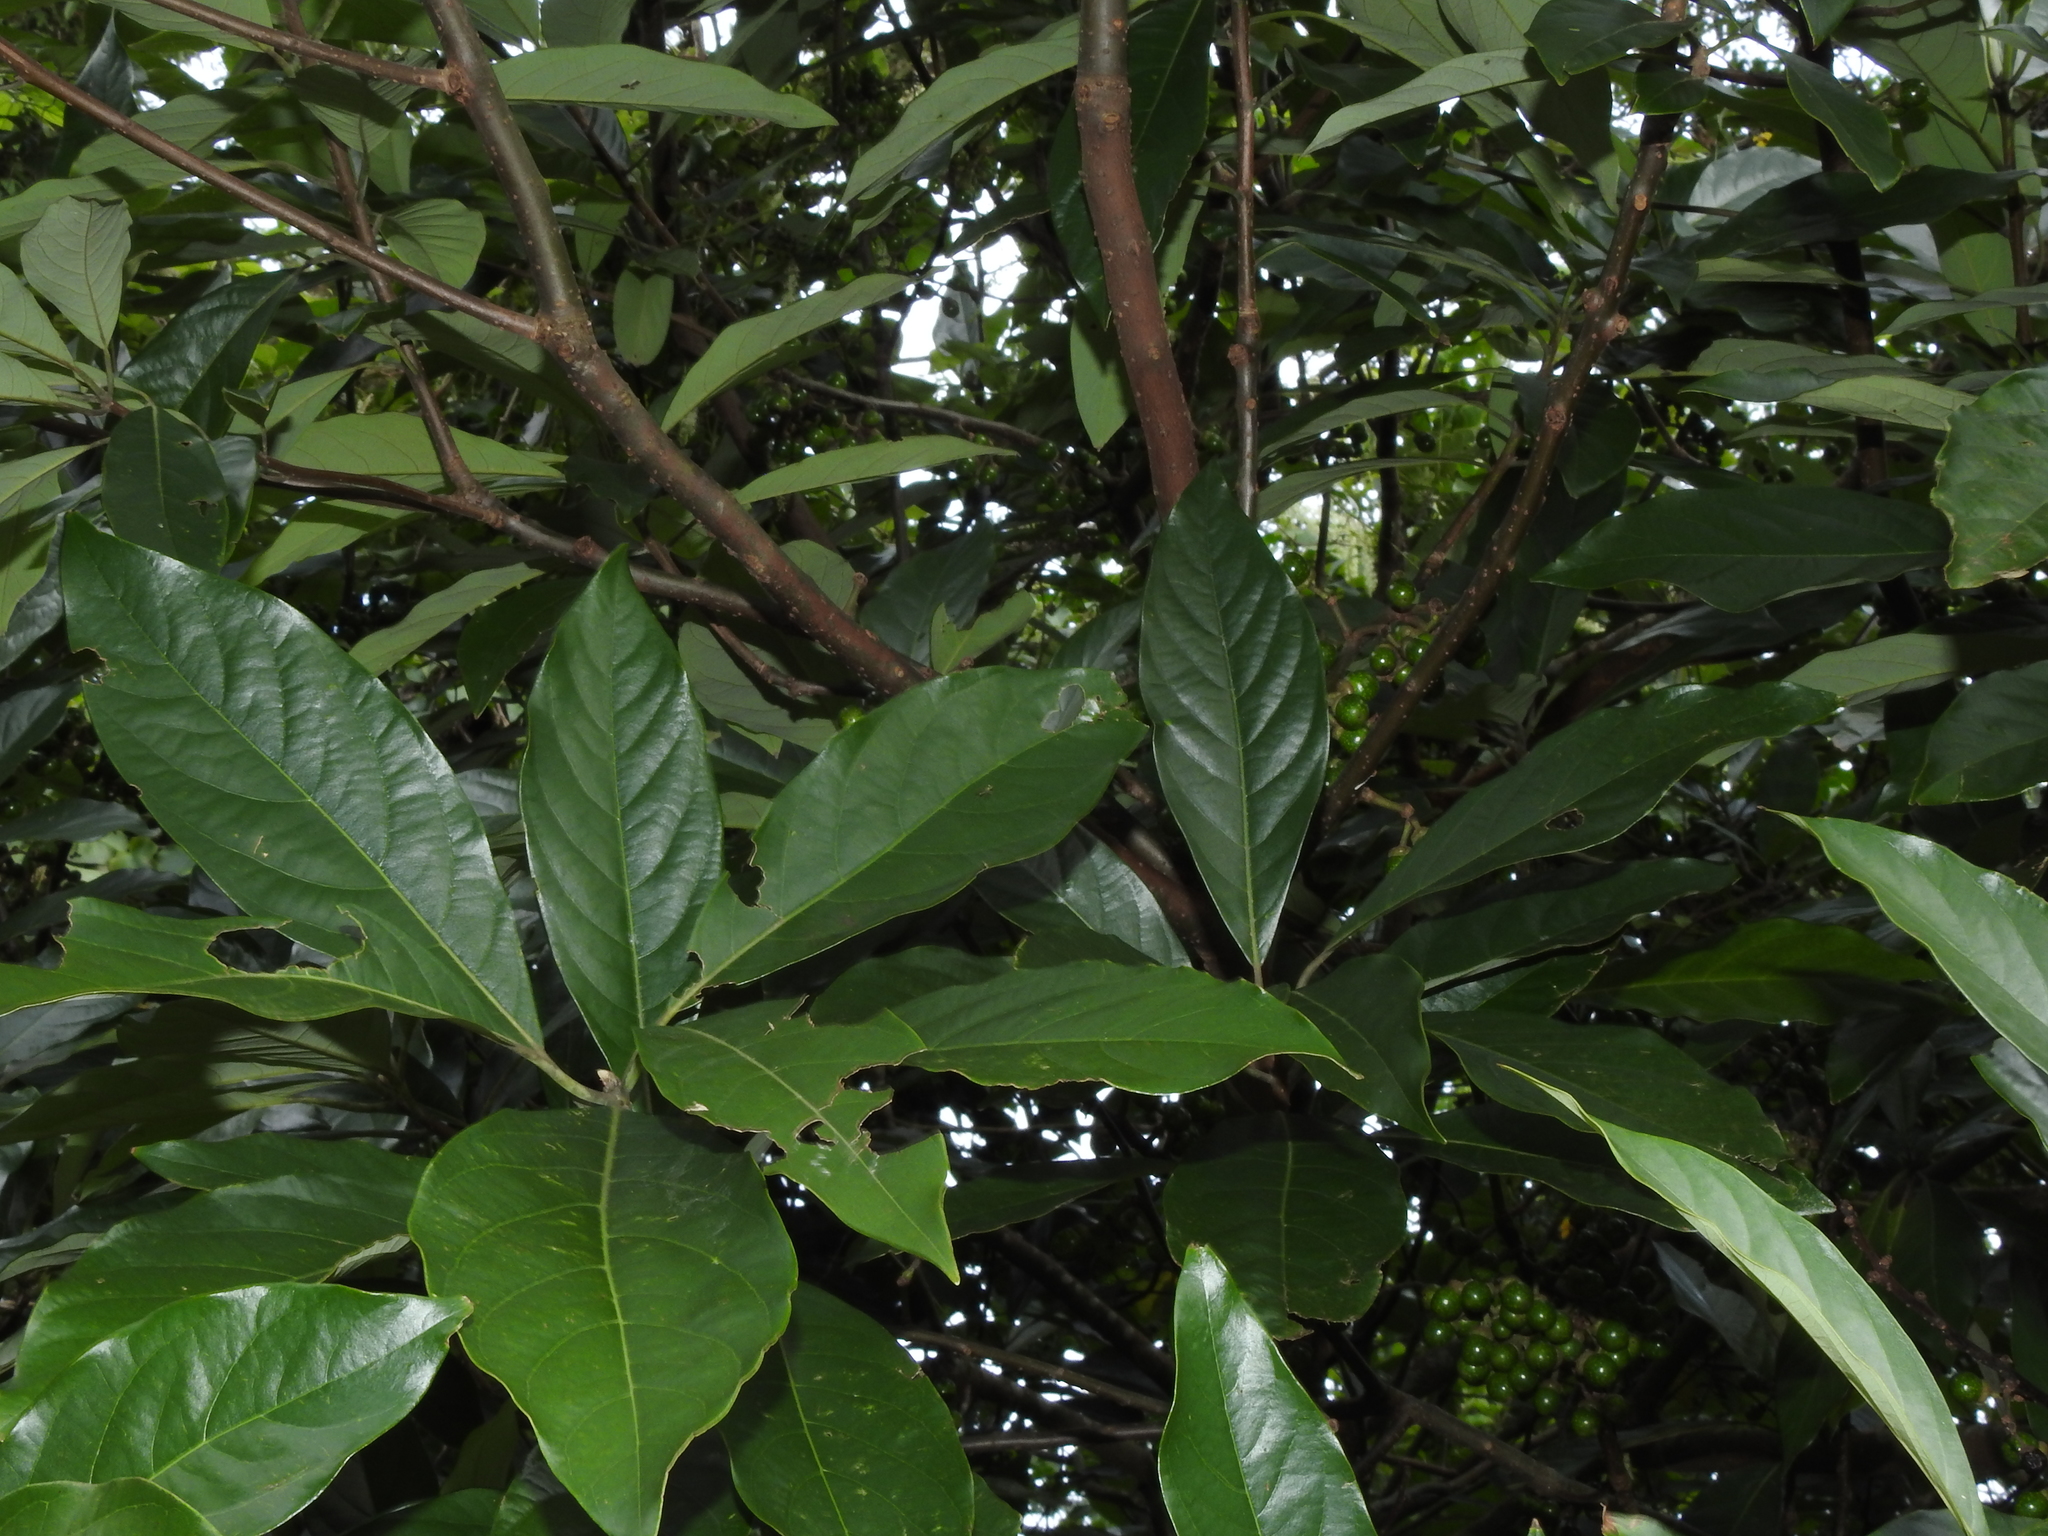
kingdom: Plantae
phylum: Tracheophyta
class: Magnoliopsida
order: Laurales
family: Lauraceae
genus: Lindera
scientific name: Lindera megaphylla
